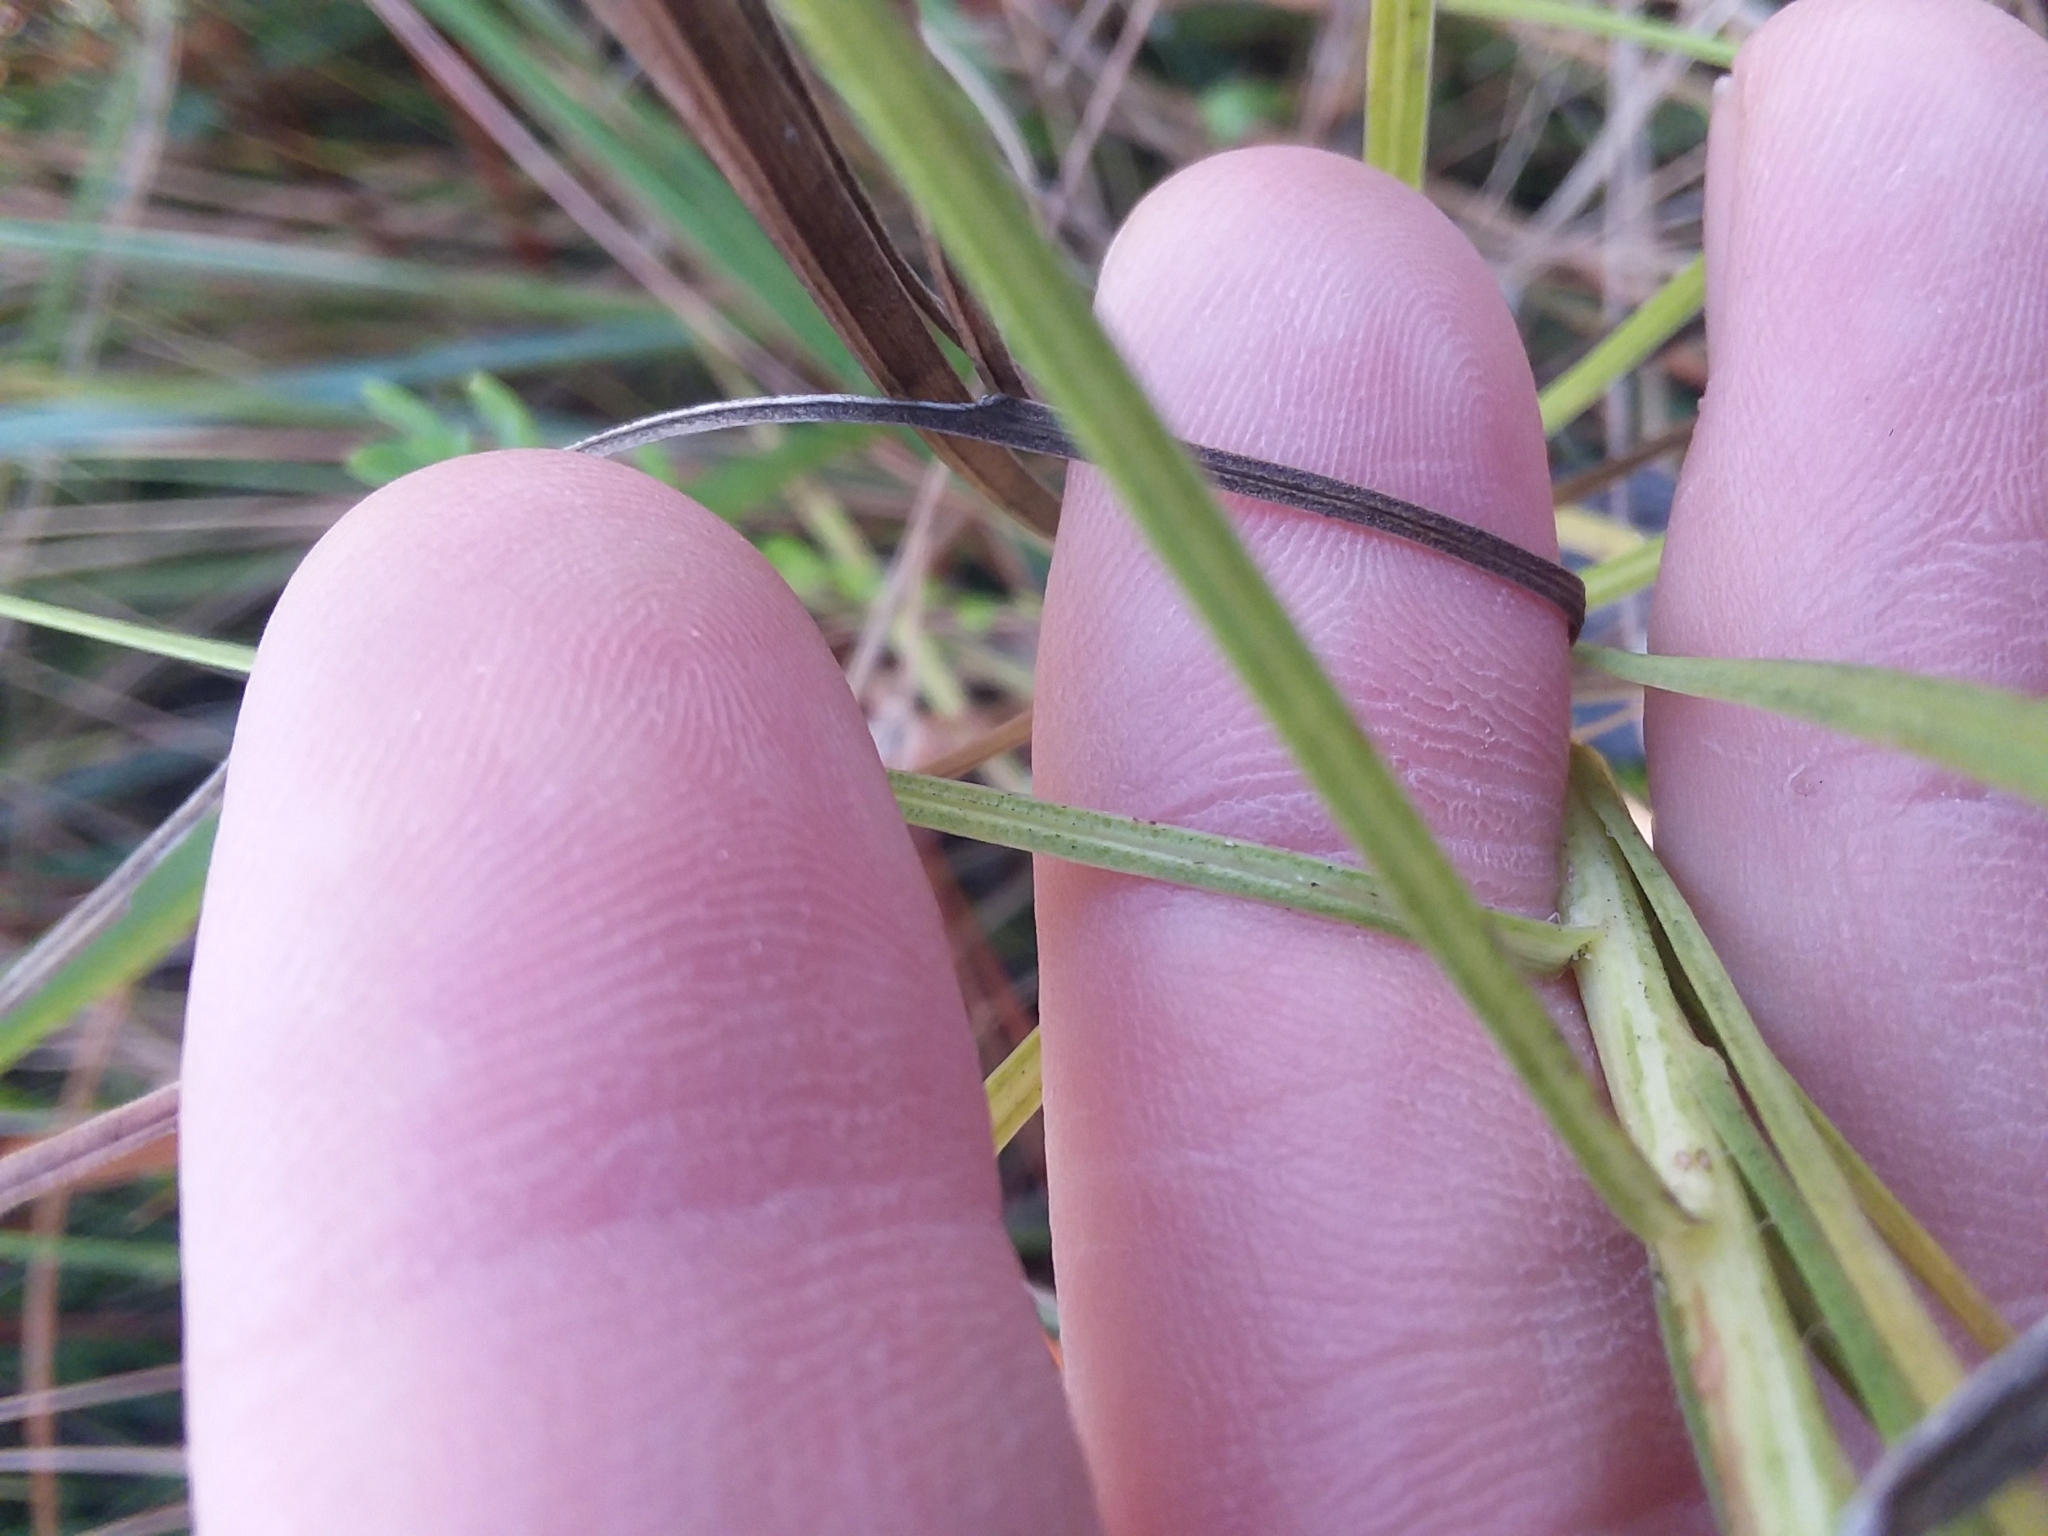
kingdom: Plantae
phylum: Tracheophyta
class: Magnoliopsida
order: Asterales
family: Asteraceae
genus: Liatris
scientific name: Liatris elegantula
